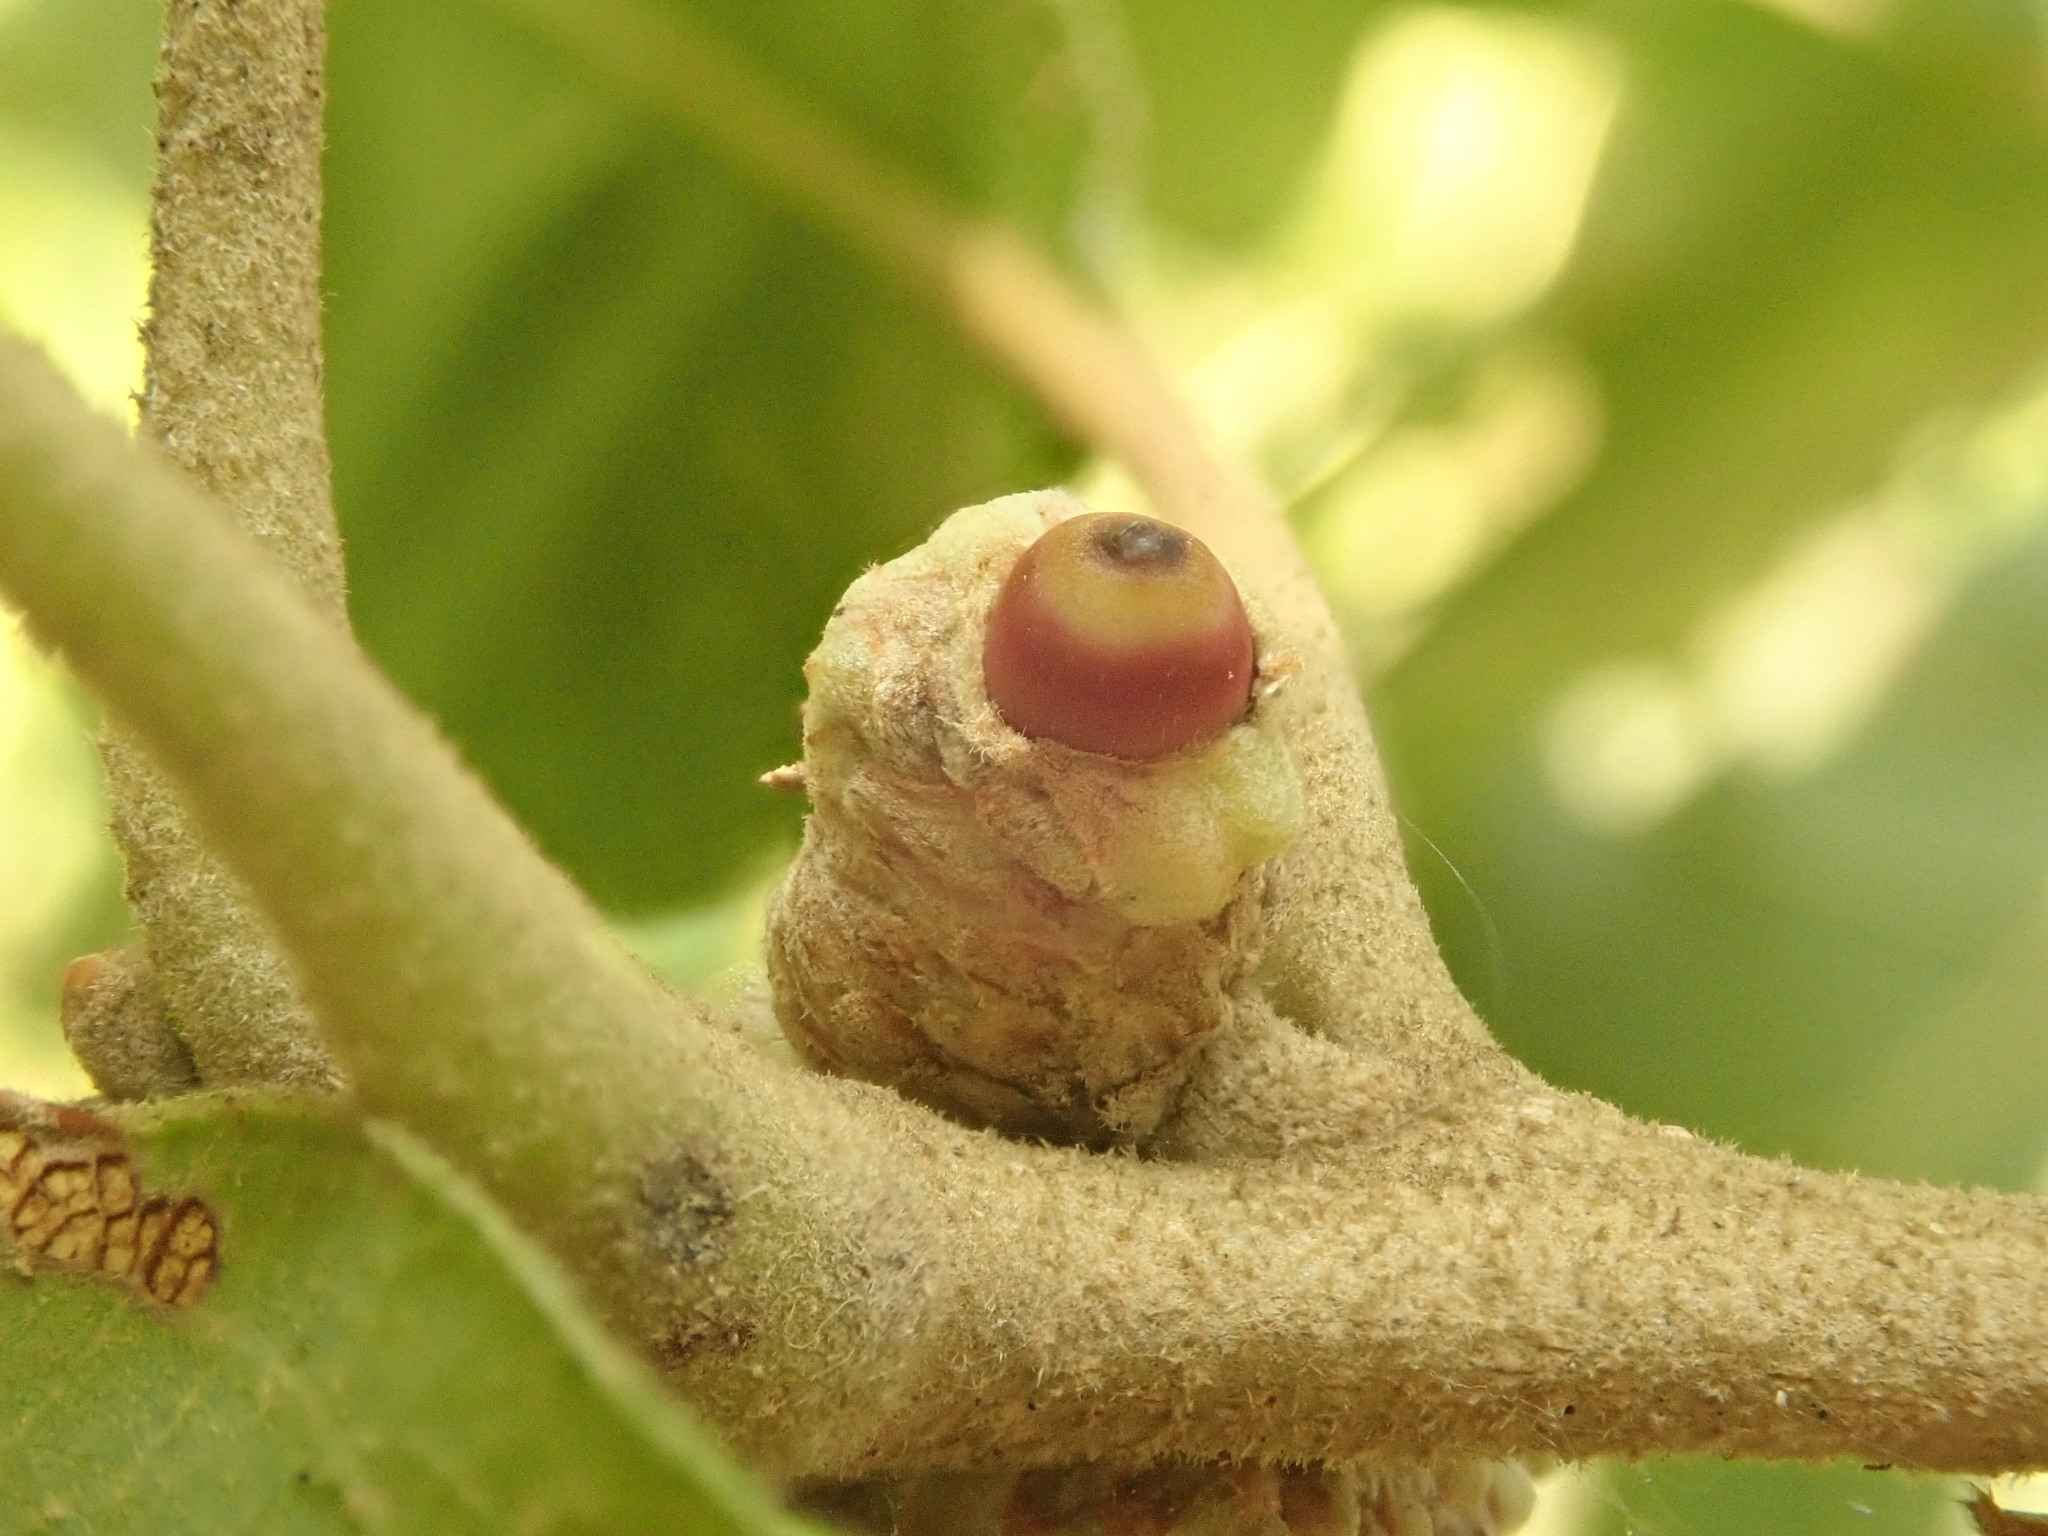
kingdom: Animalia
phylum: Arthropoda
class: Insecta
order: Hymenoptera
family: Cynipidae
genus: Callirhytis
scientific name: Callirhytis glandium
